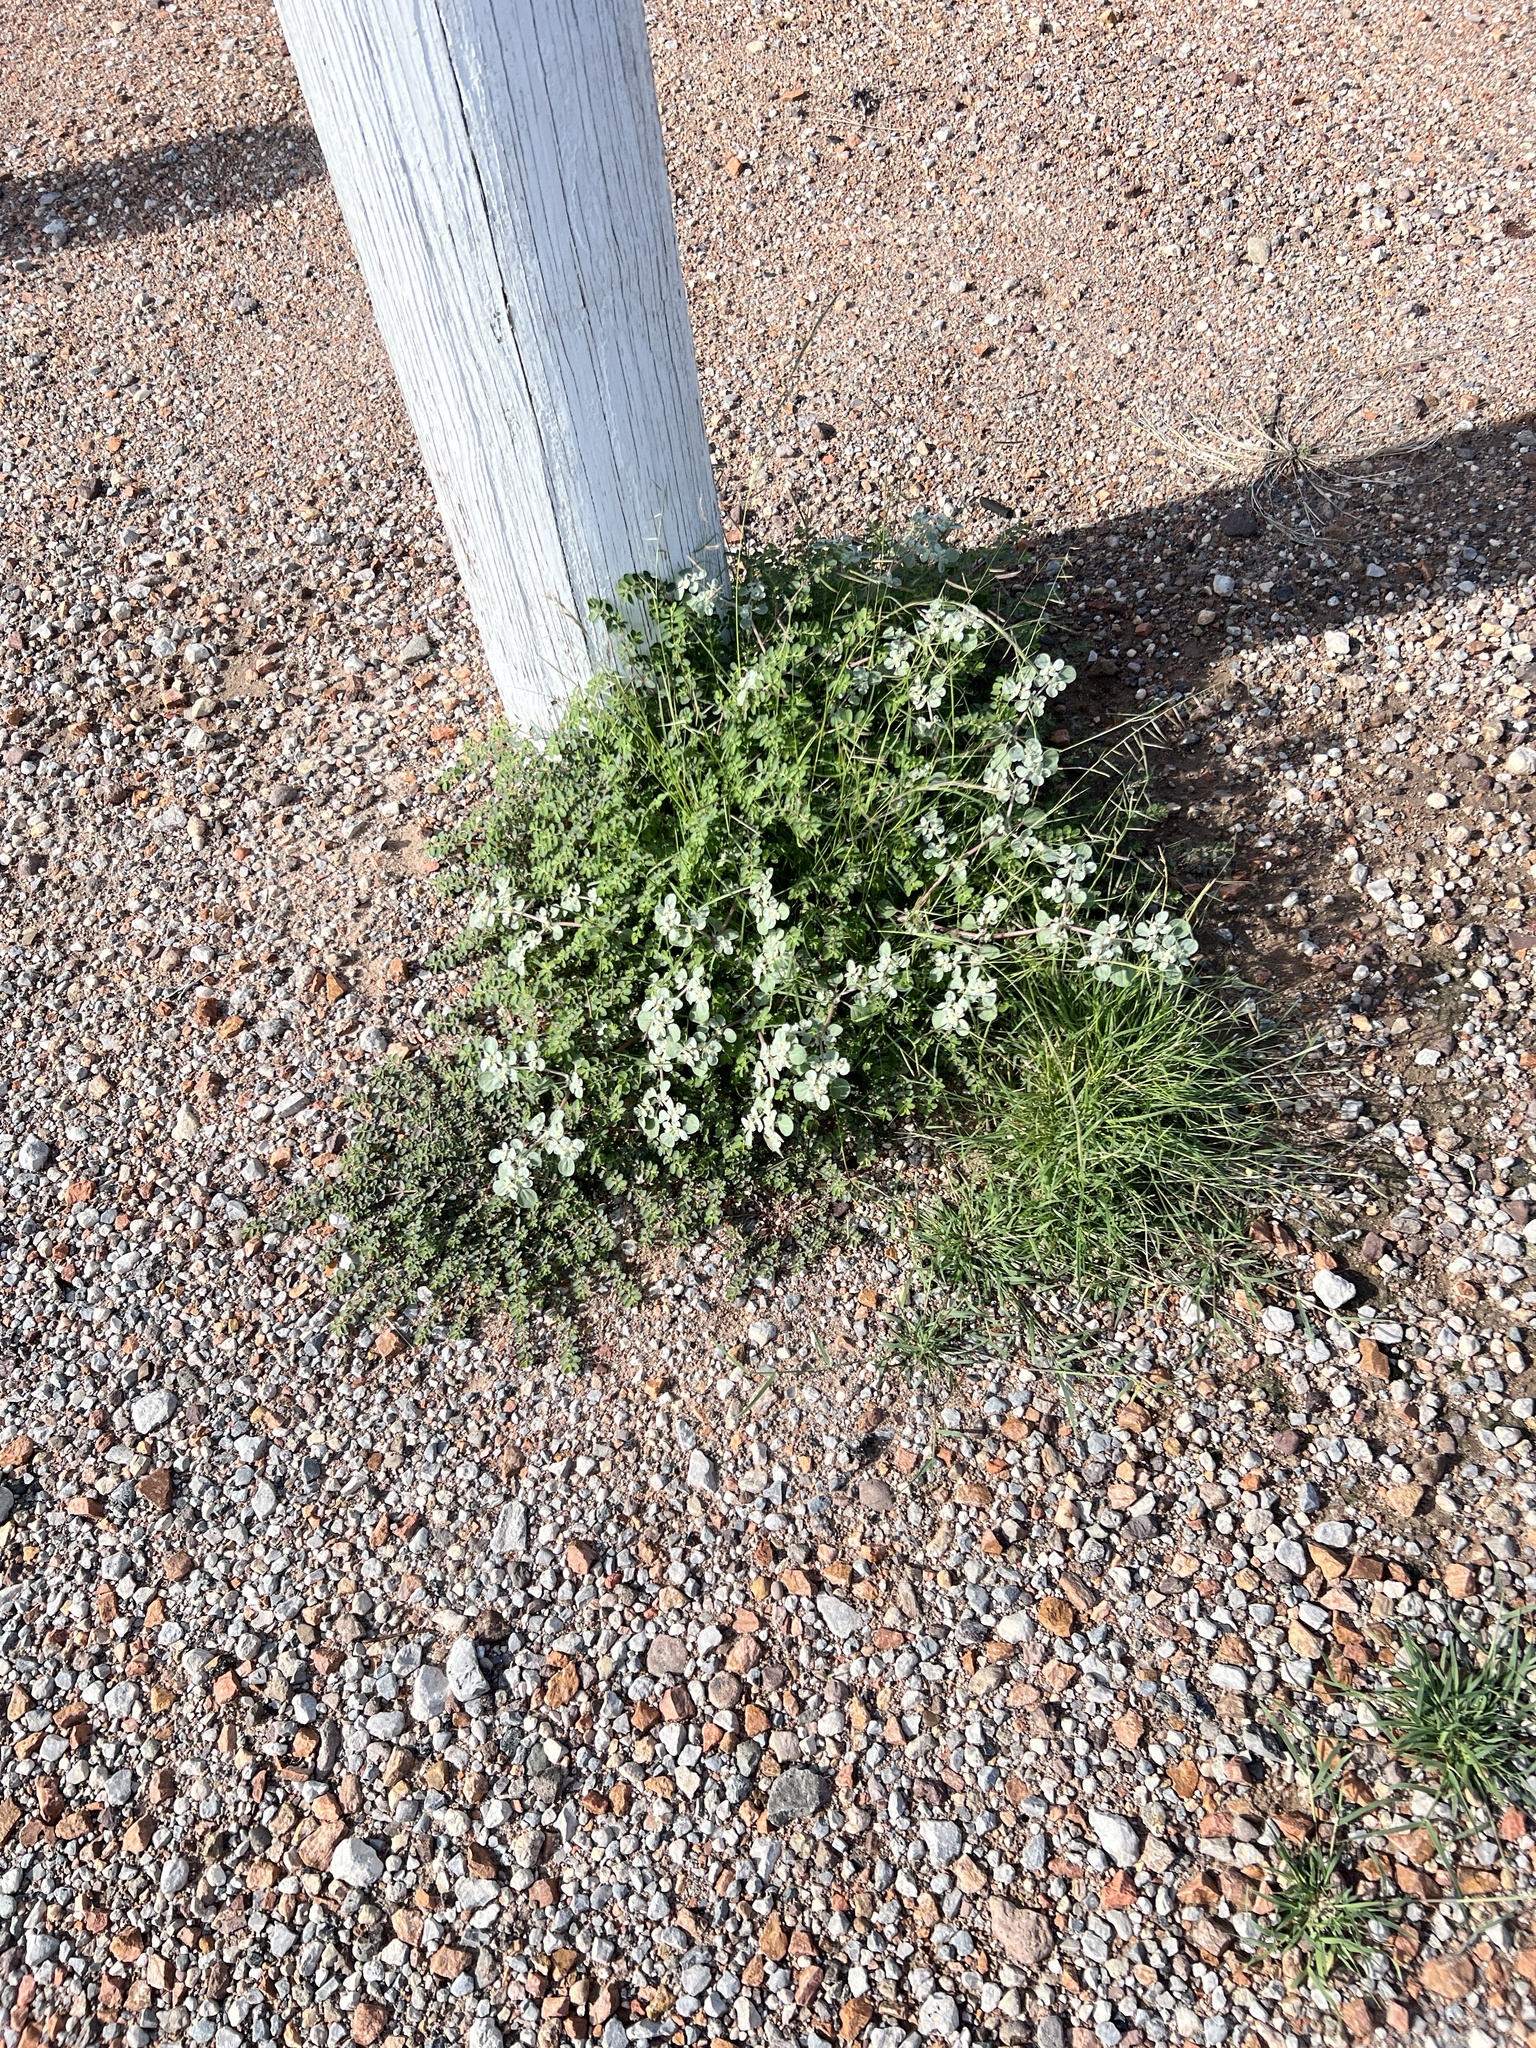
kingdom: Plantae
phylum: Tracheophyta
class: Magnoliopsida
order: Caryophyllales
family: Amaranthaceae
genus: Tidestromia
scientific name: Tidestromia lanuginosa
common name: Woolly tidestromia
